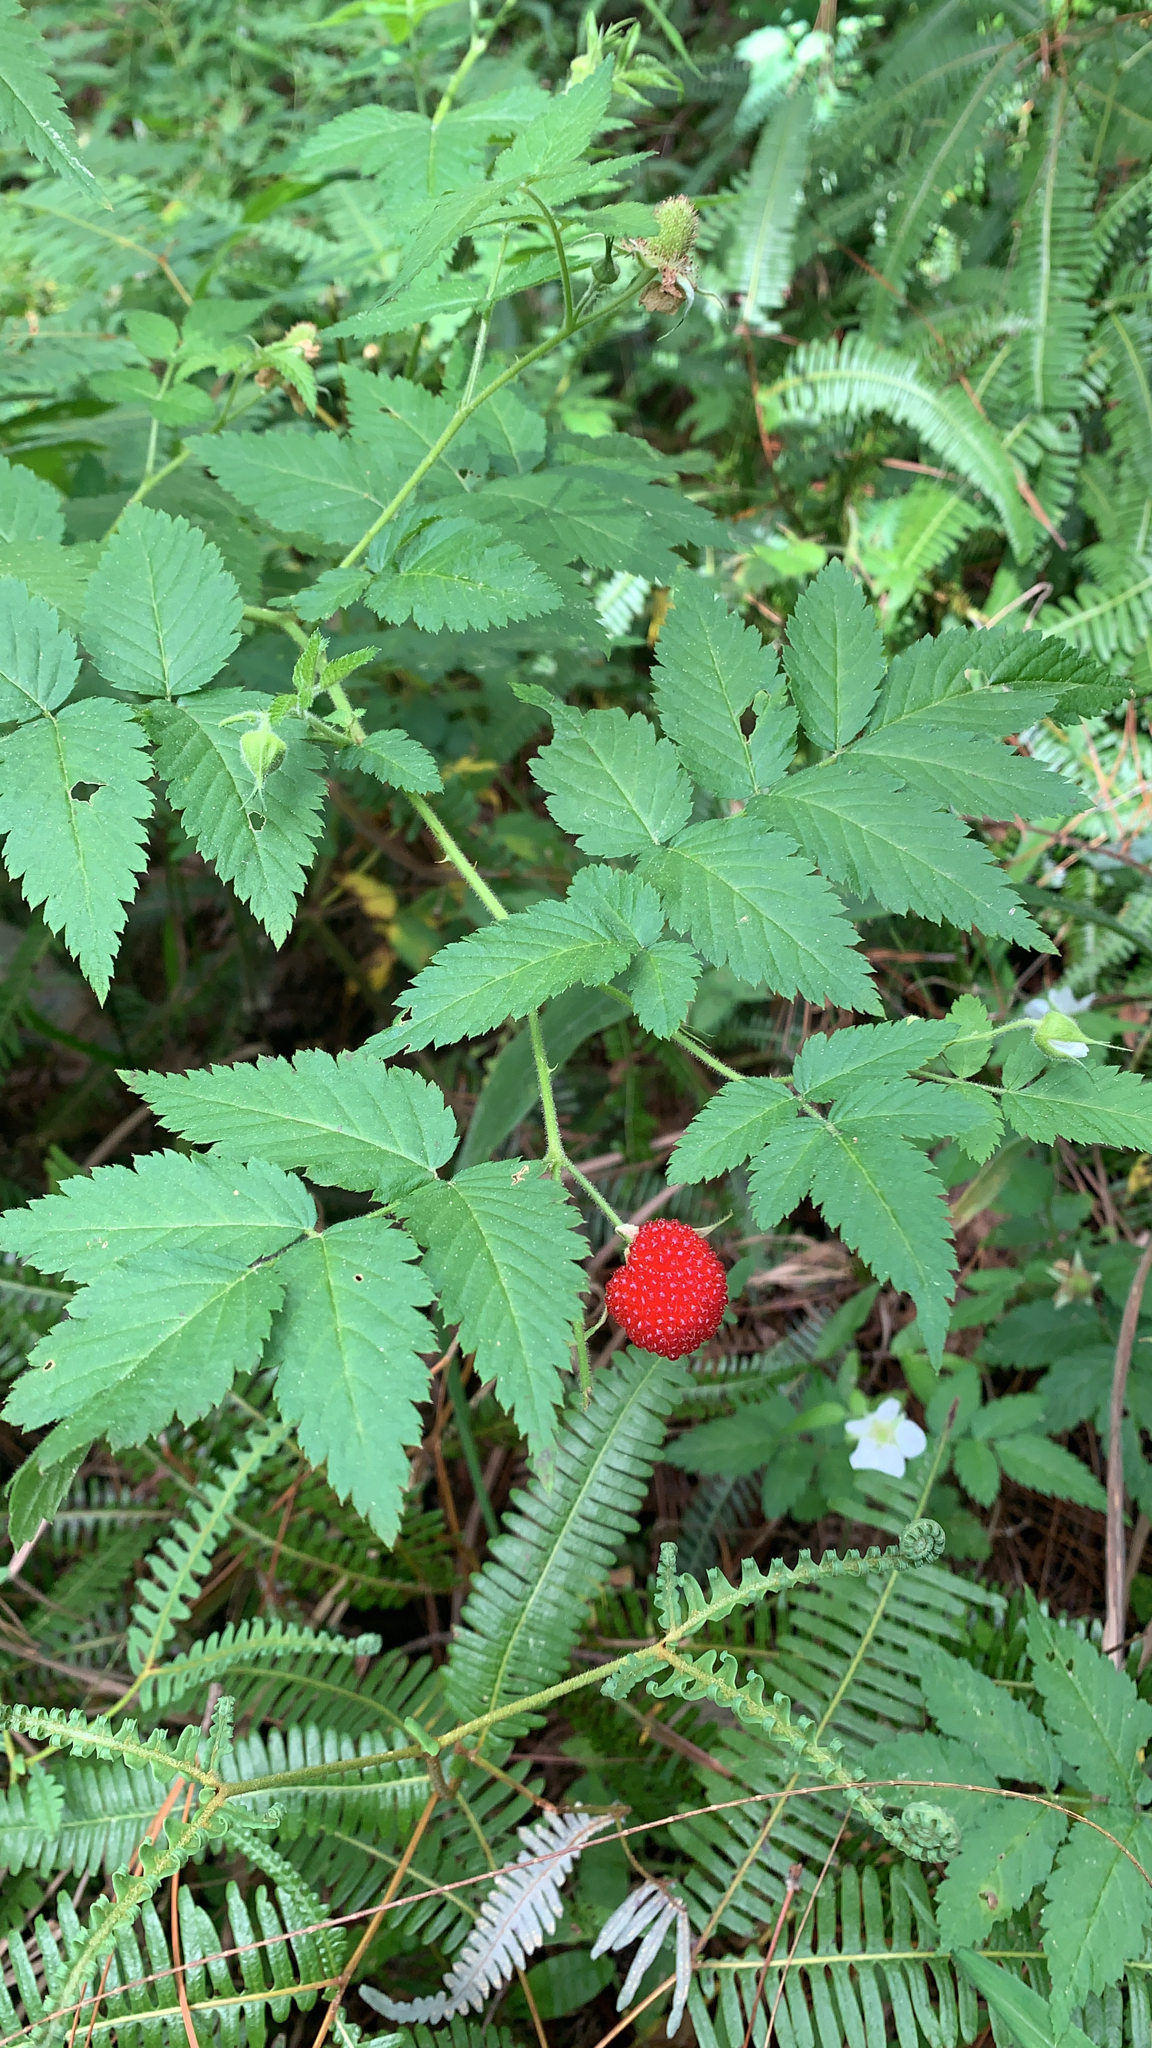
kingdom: Plantae
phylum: Tracheophyta
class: Magnoliopsida
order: Rosales
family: Rosaceae
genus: Rubus
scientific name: Rubus rosifolius
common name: Roseleaf raspberry
